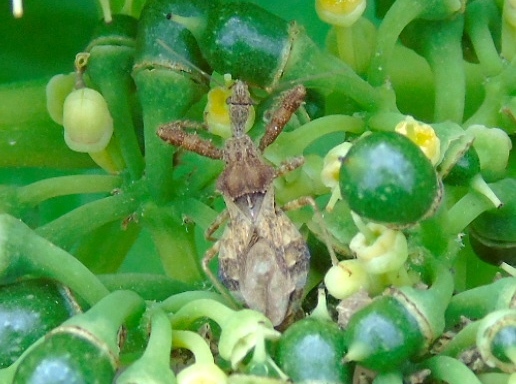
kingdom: Animalia
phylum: Arthropoda
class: Insecta
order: Hemiptera
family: Reduviidae
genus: Sinea
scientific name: Sinea
